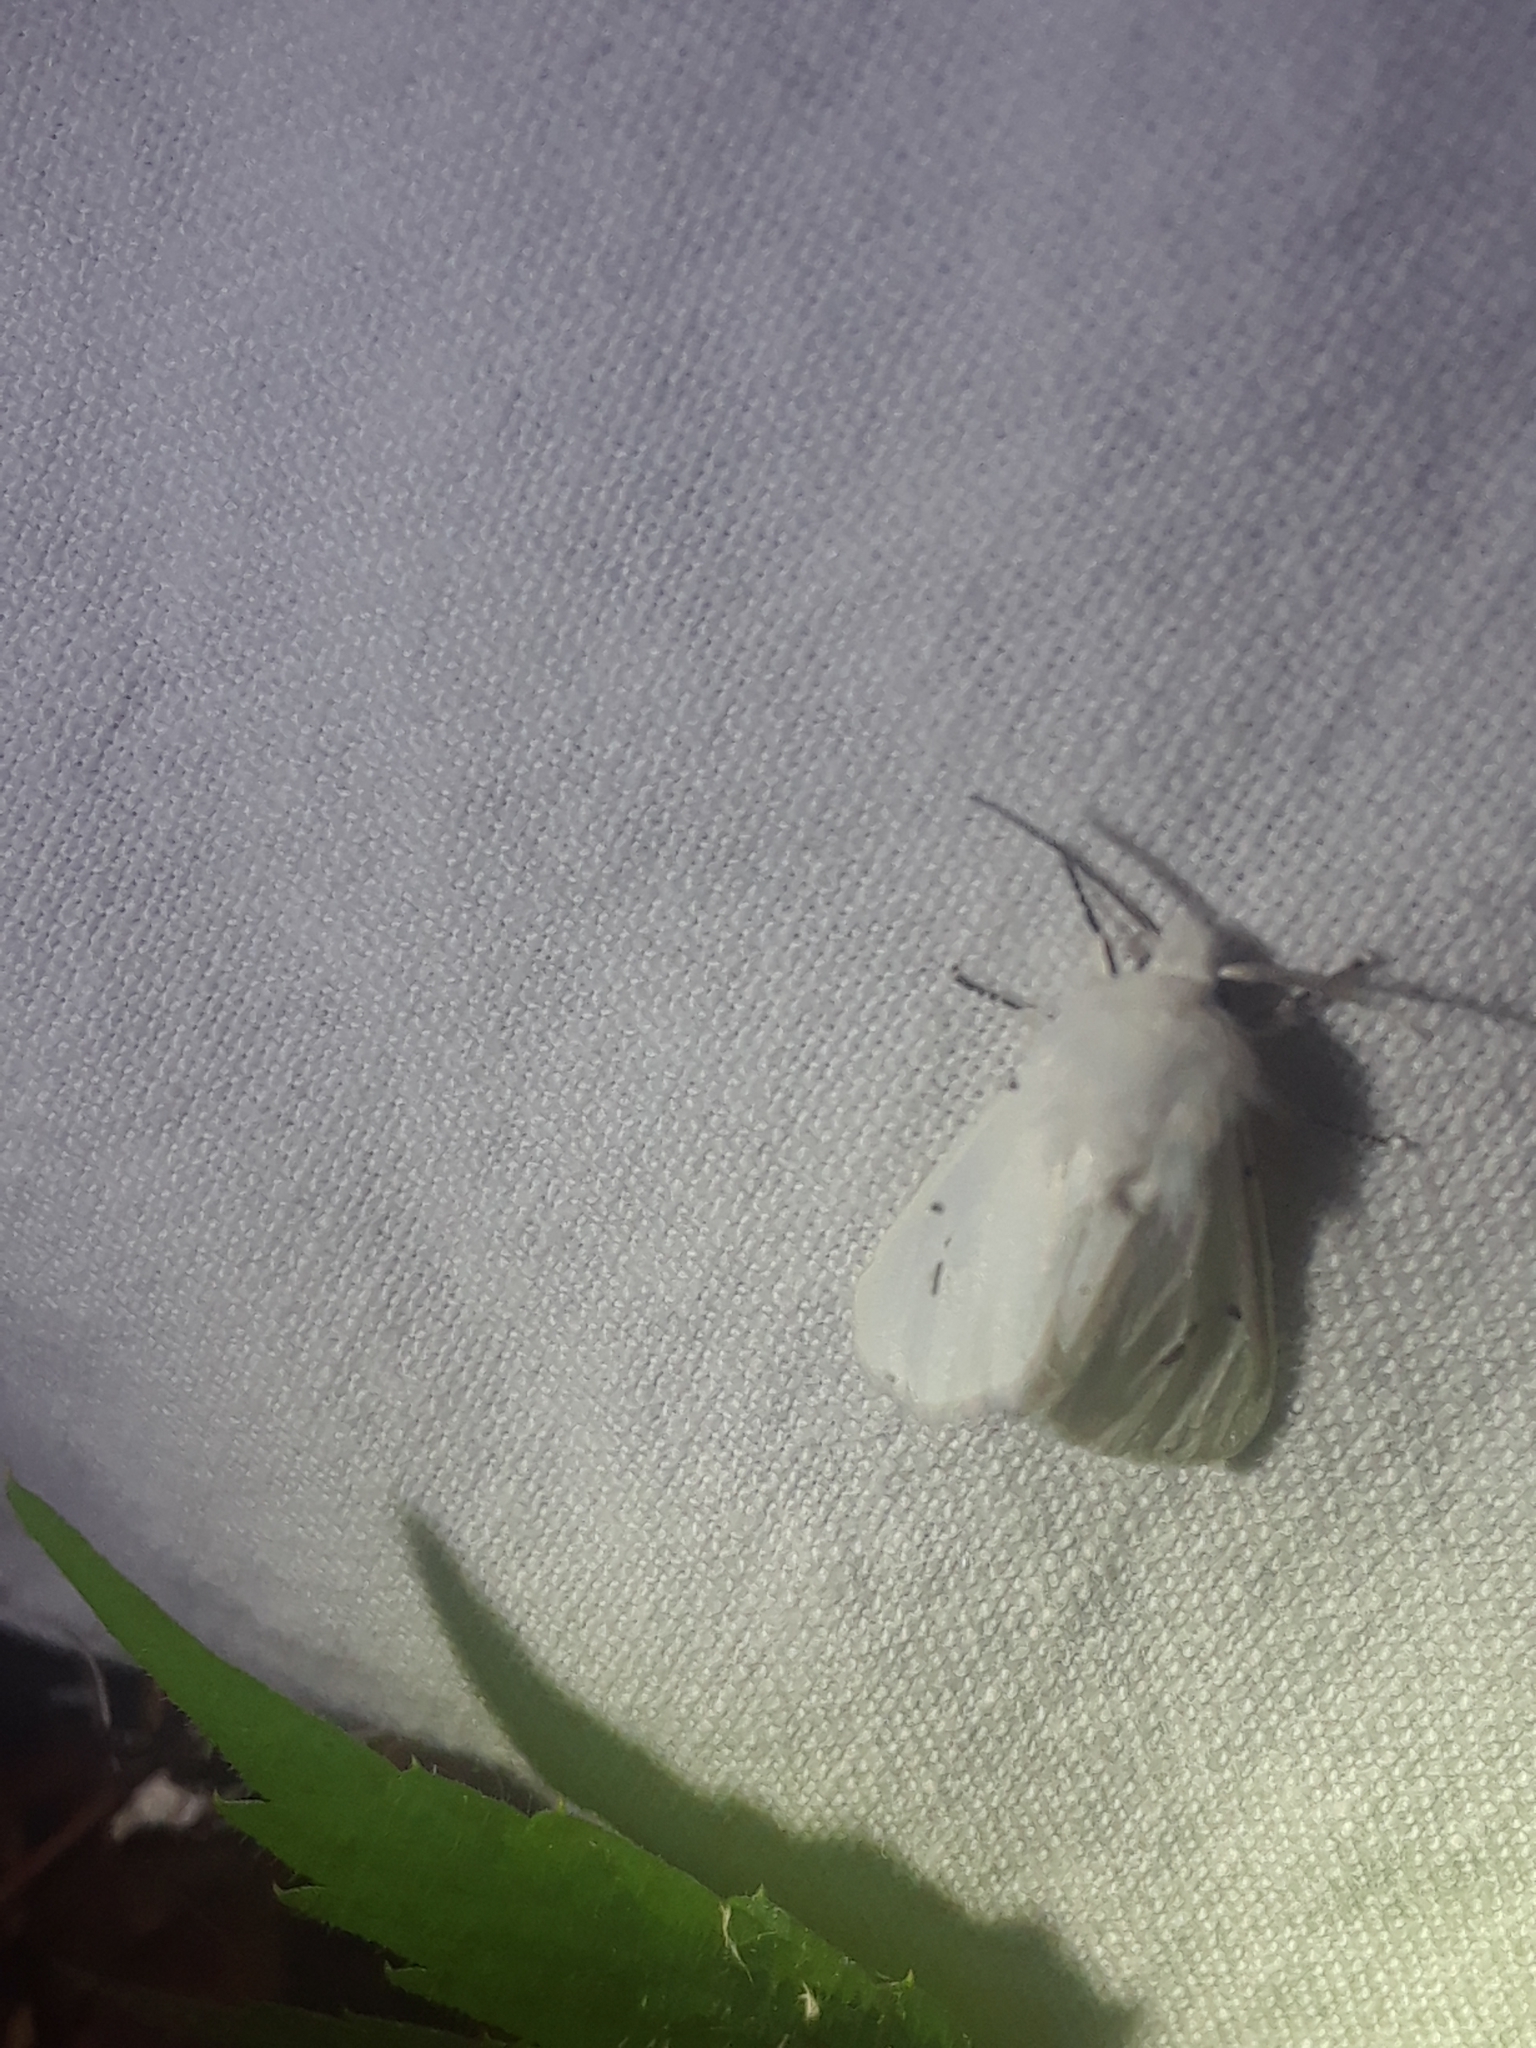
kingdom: Animalia
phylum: Arthropoda
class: Insecta
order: Lepidoptera
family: Erebidae
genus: Hyphantria
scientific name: Hyphantria cunea
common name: American white moth
